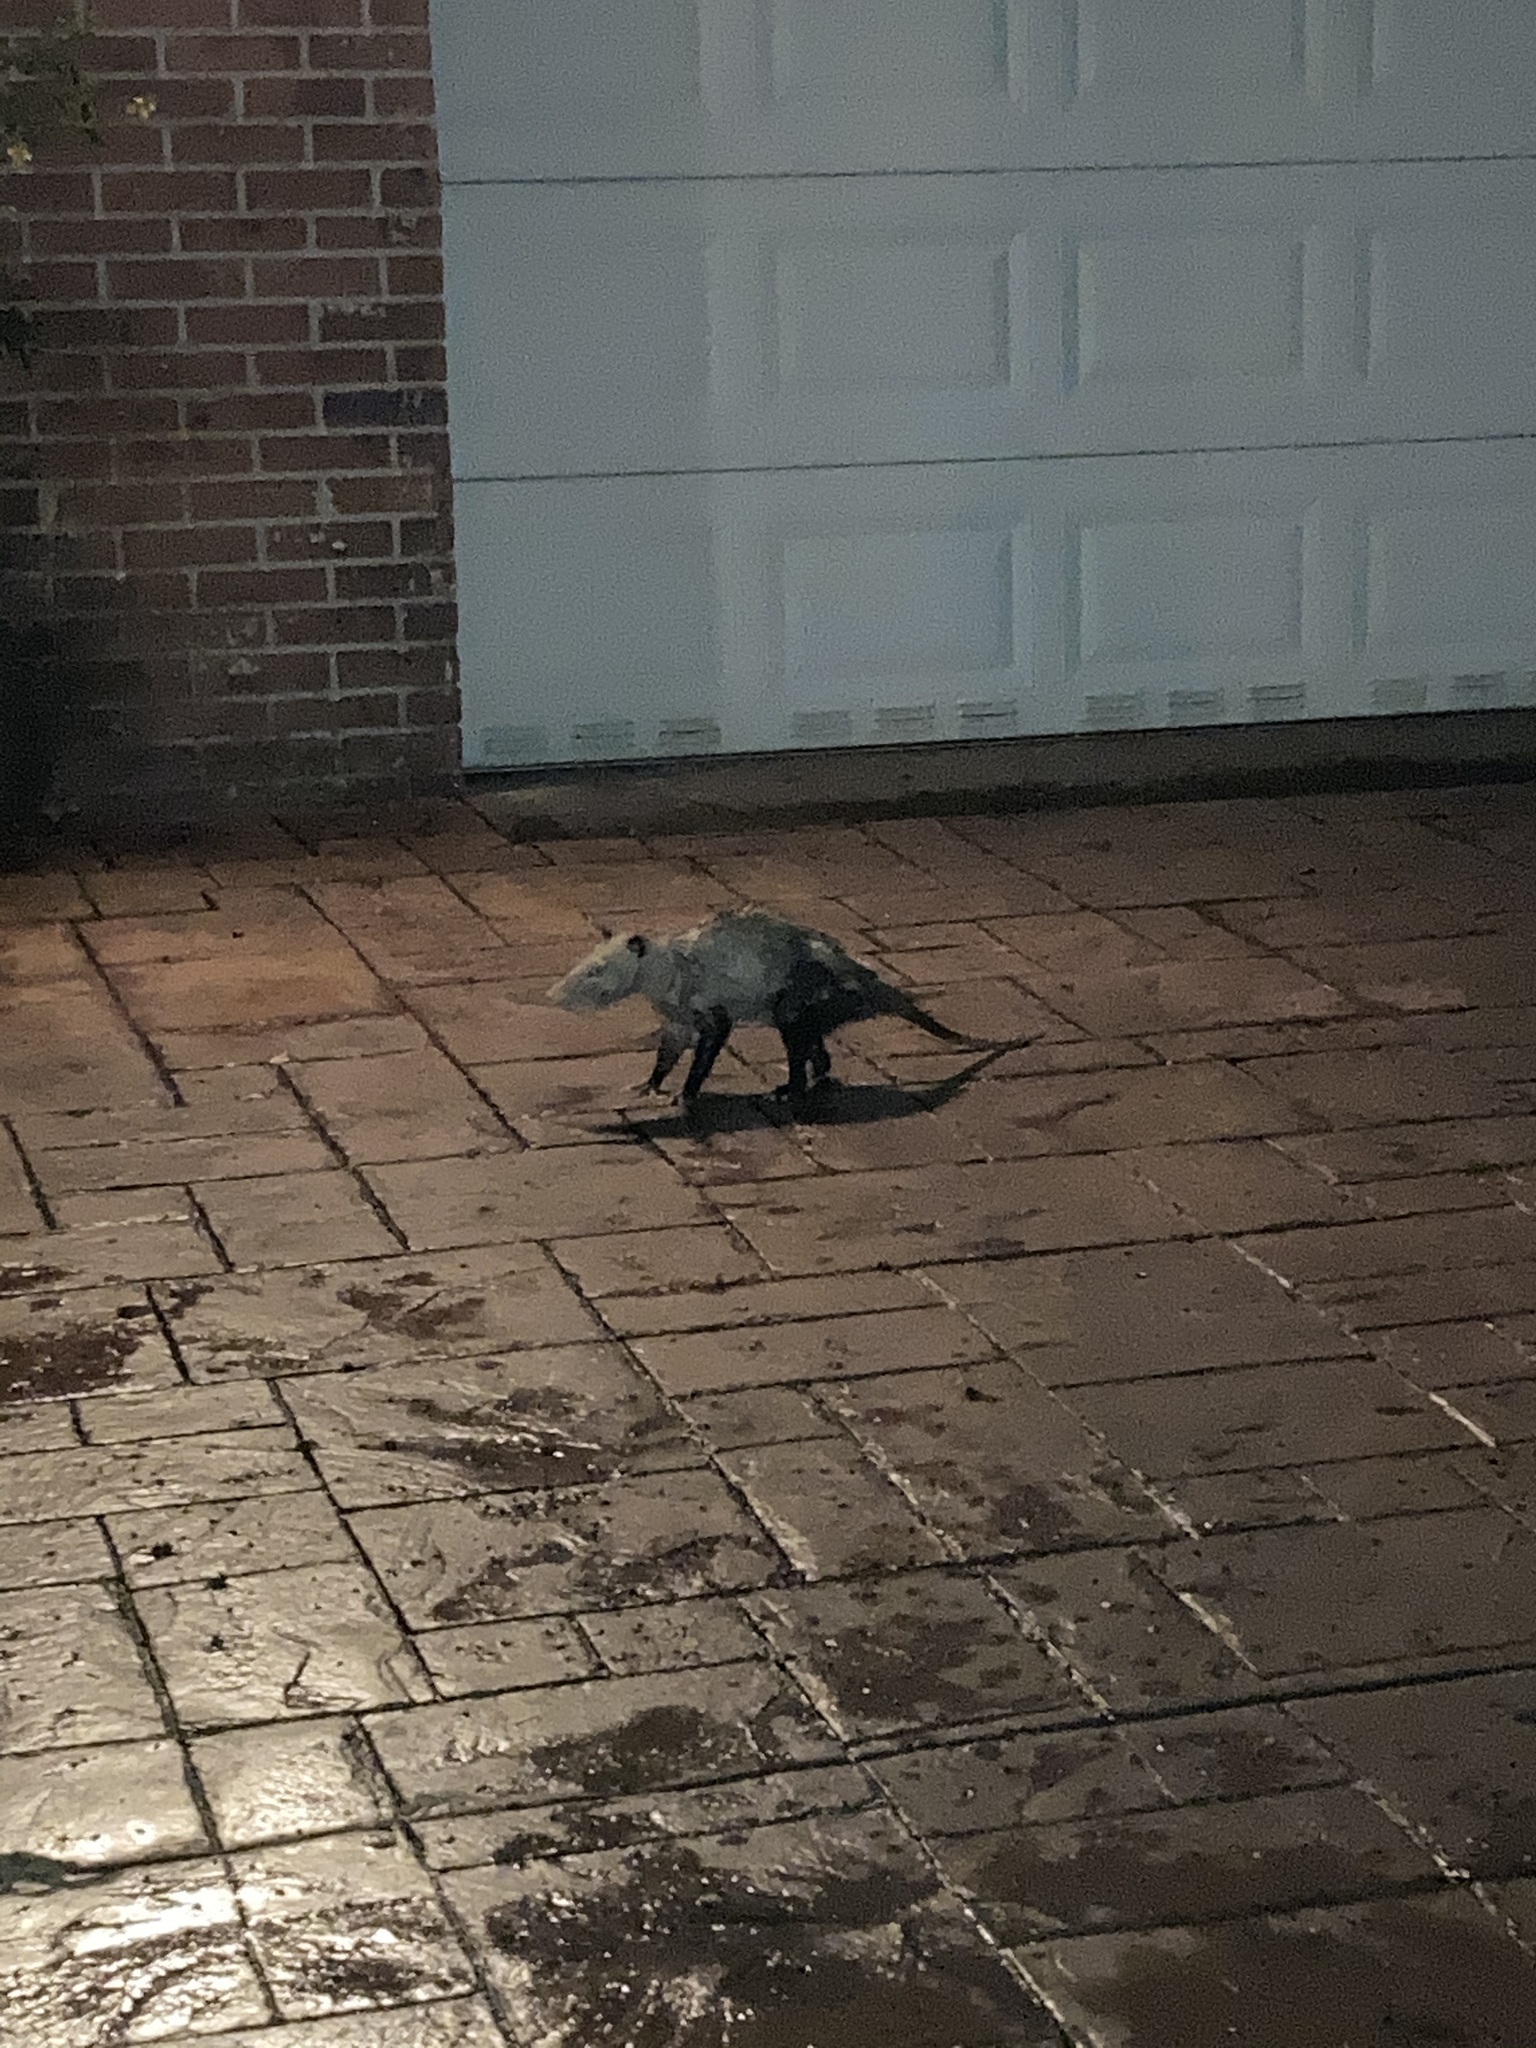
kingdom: Animalia
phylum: Chordata
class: Mammalia
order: Didelphimorphia
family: Didelphidae
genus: Didelphis
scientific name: Didelphis virginiana
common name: Virginia opossum
